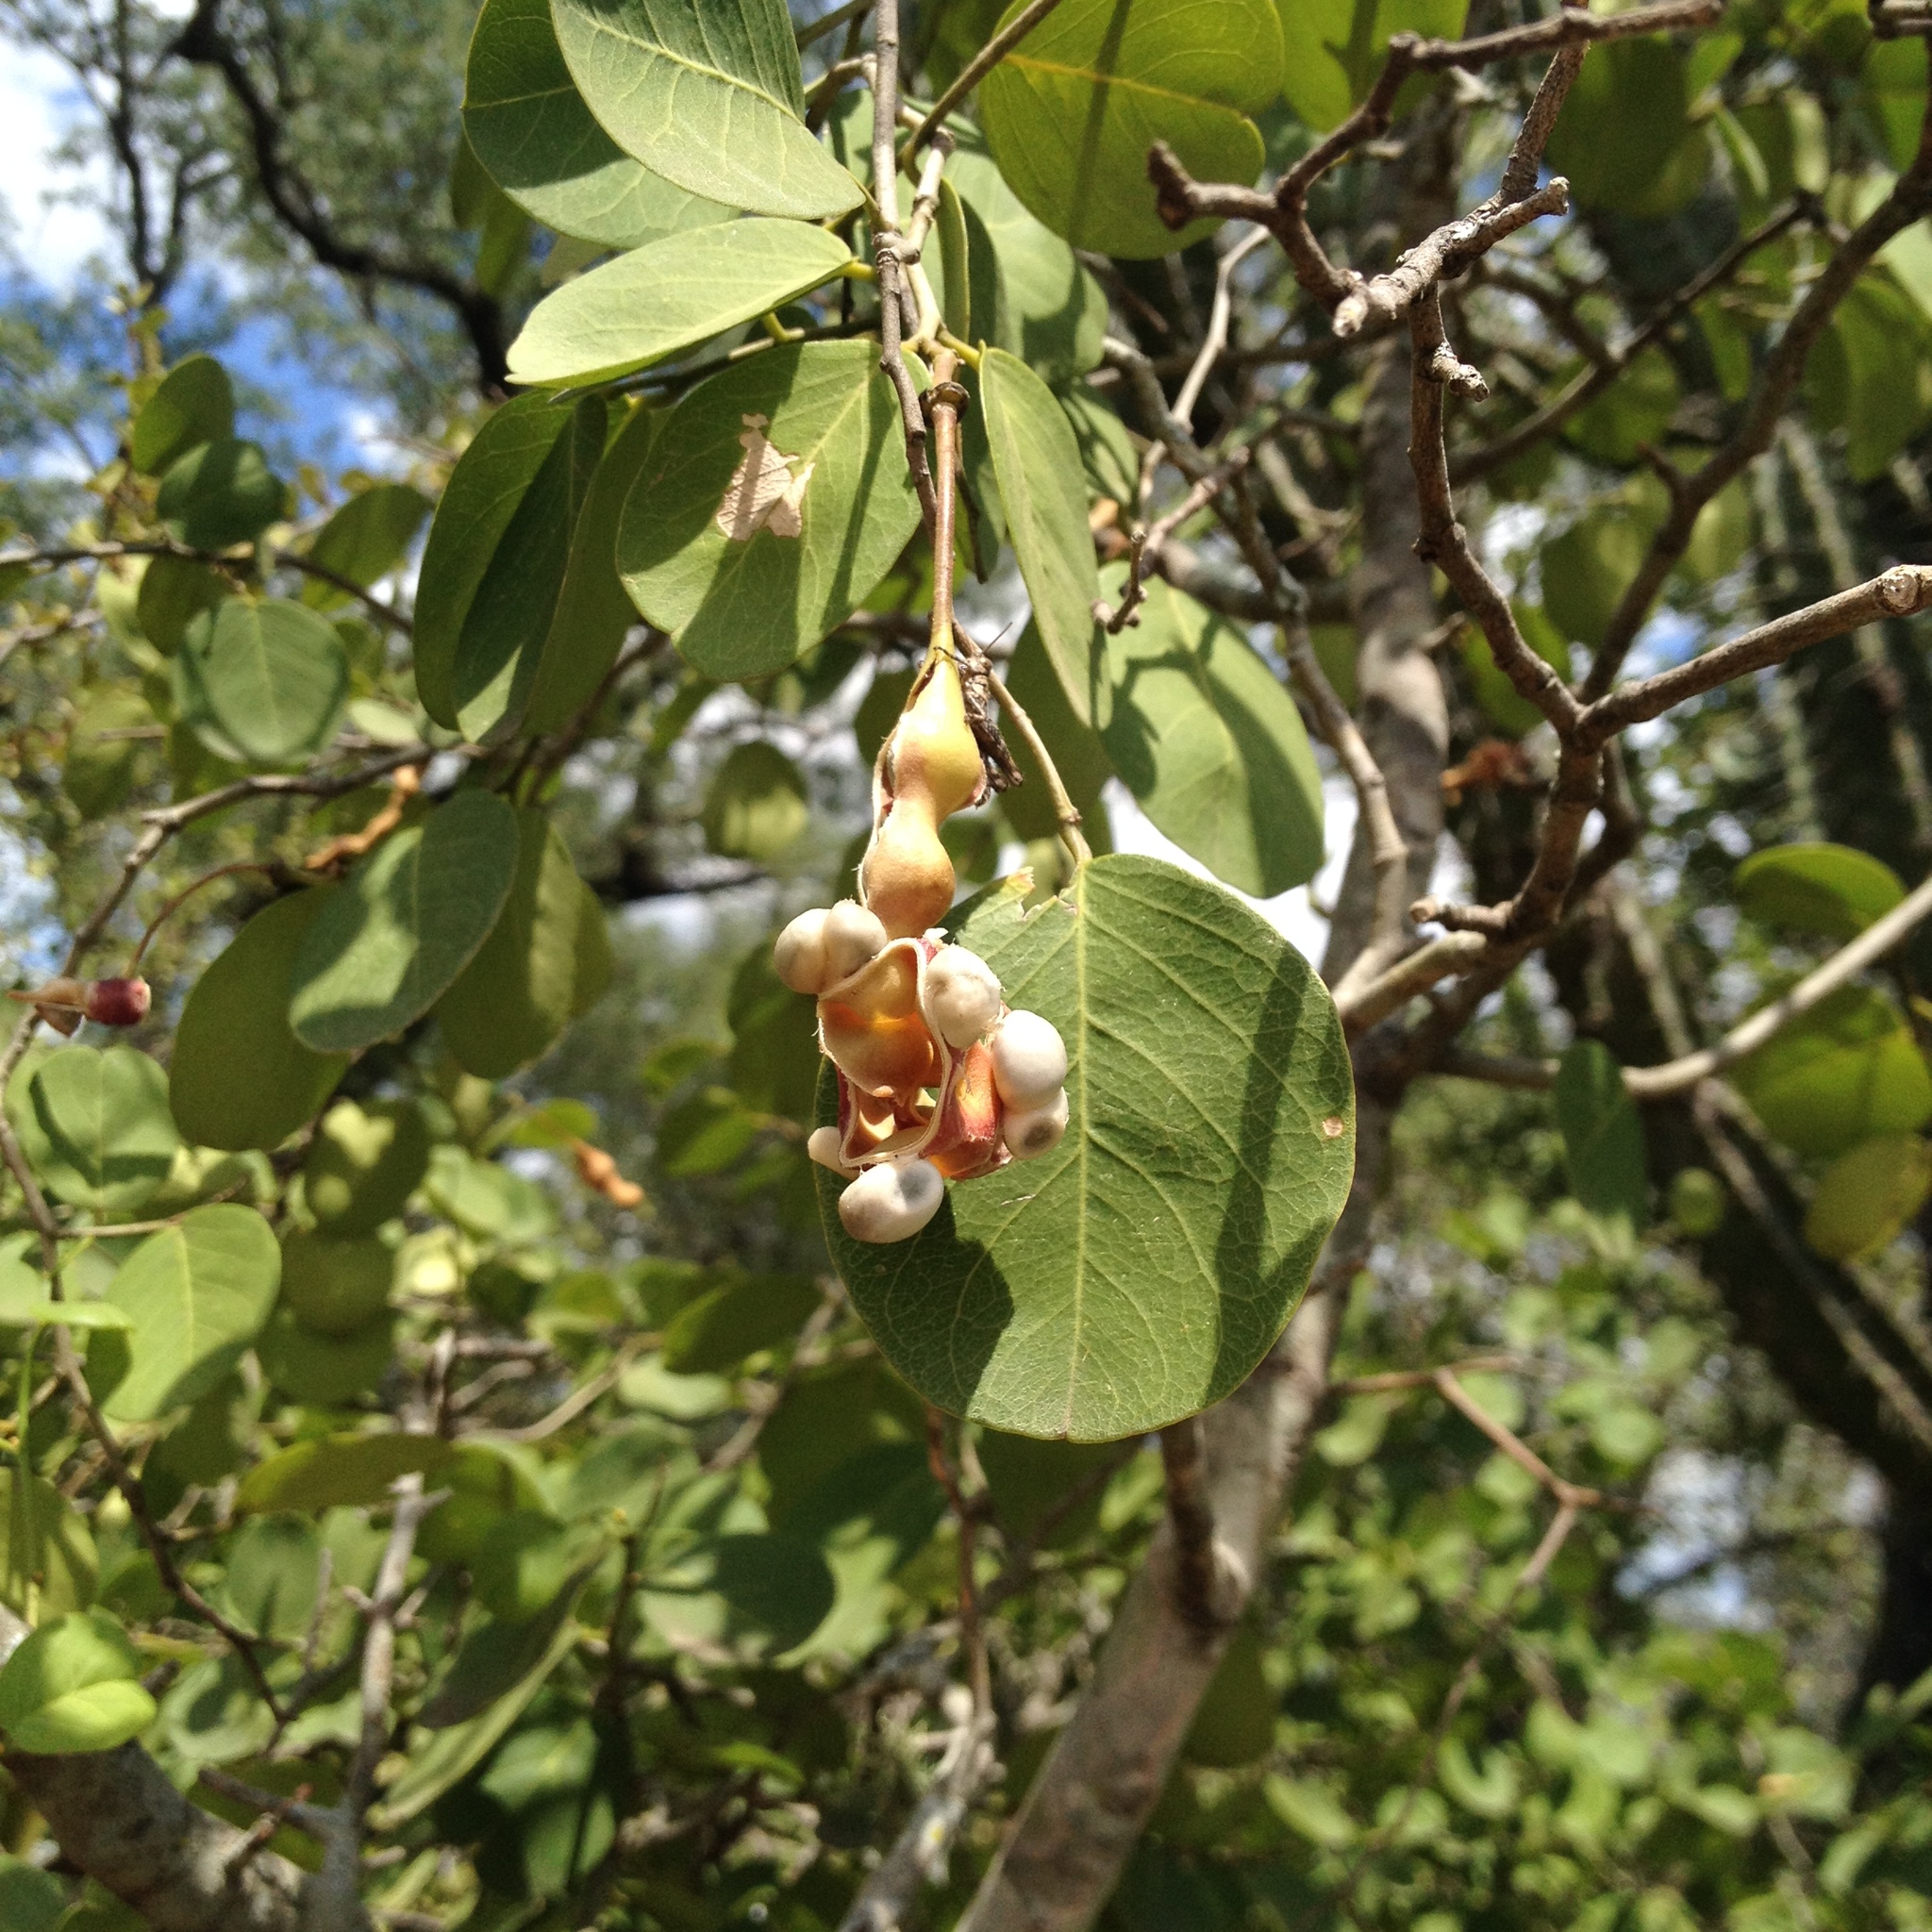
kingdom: Plantae
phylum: Tracheophyta
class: Magnoliopsida
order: Brassicales
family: Capparaceae
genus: Cynophalla
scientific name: Cynophalla retusa
